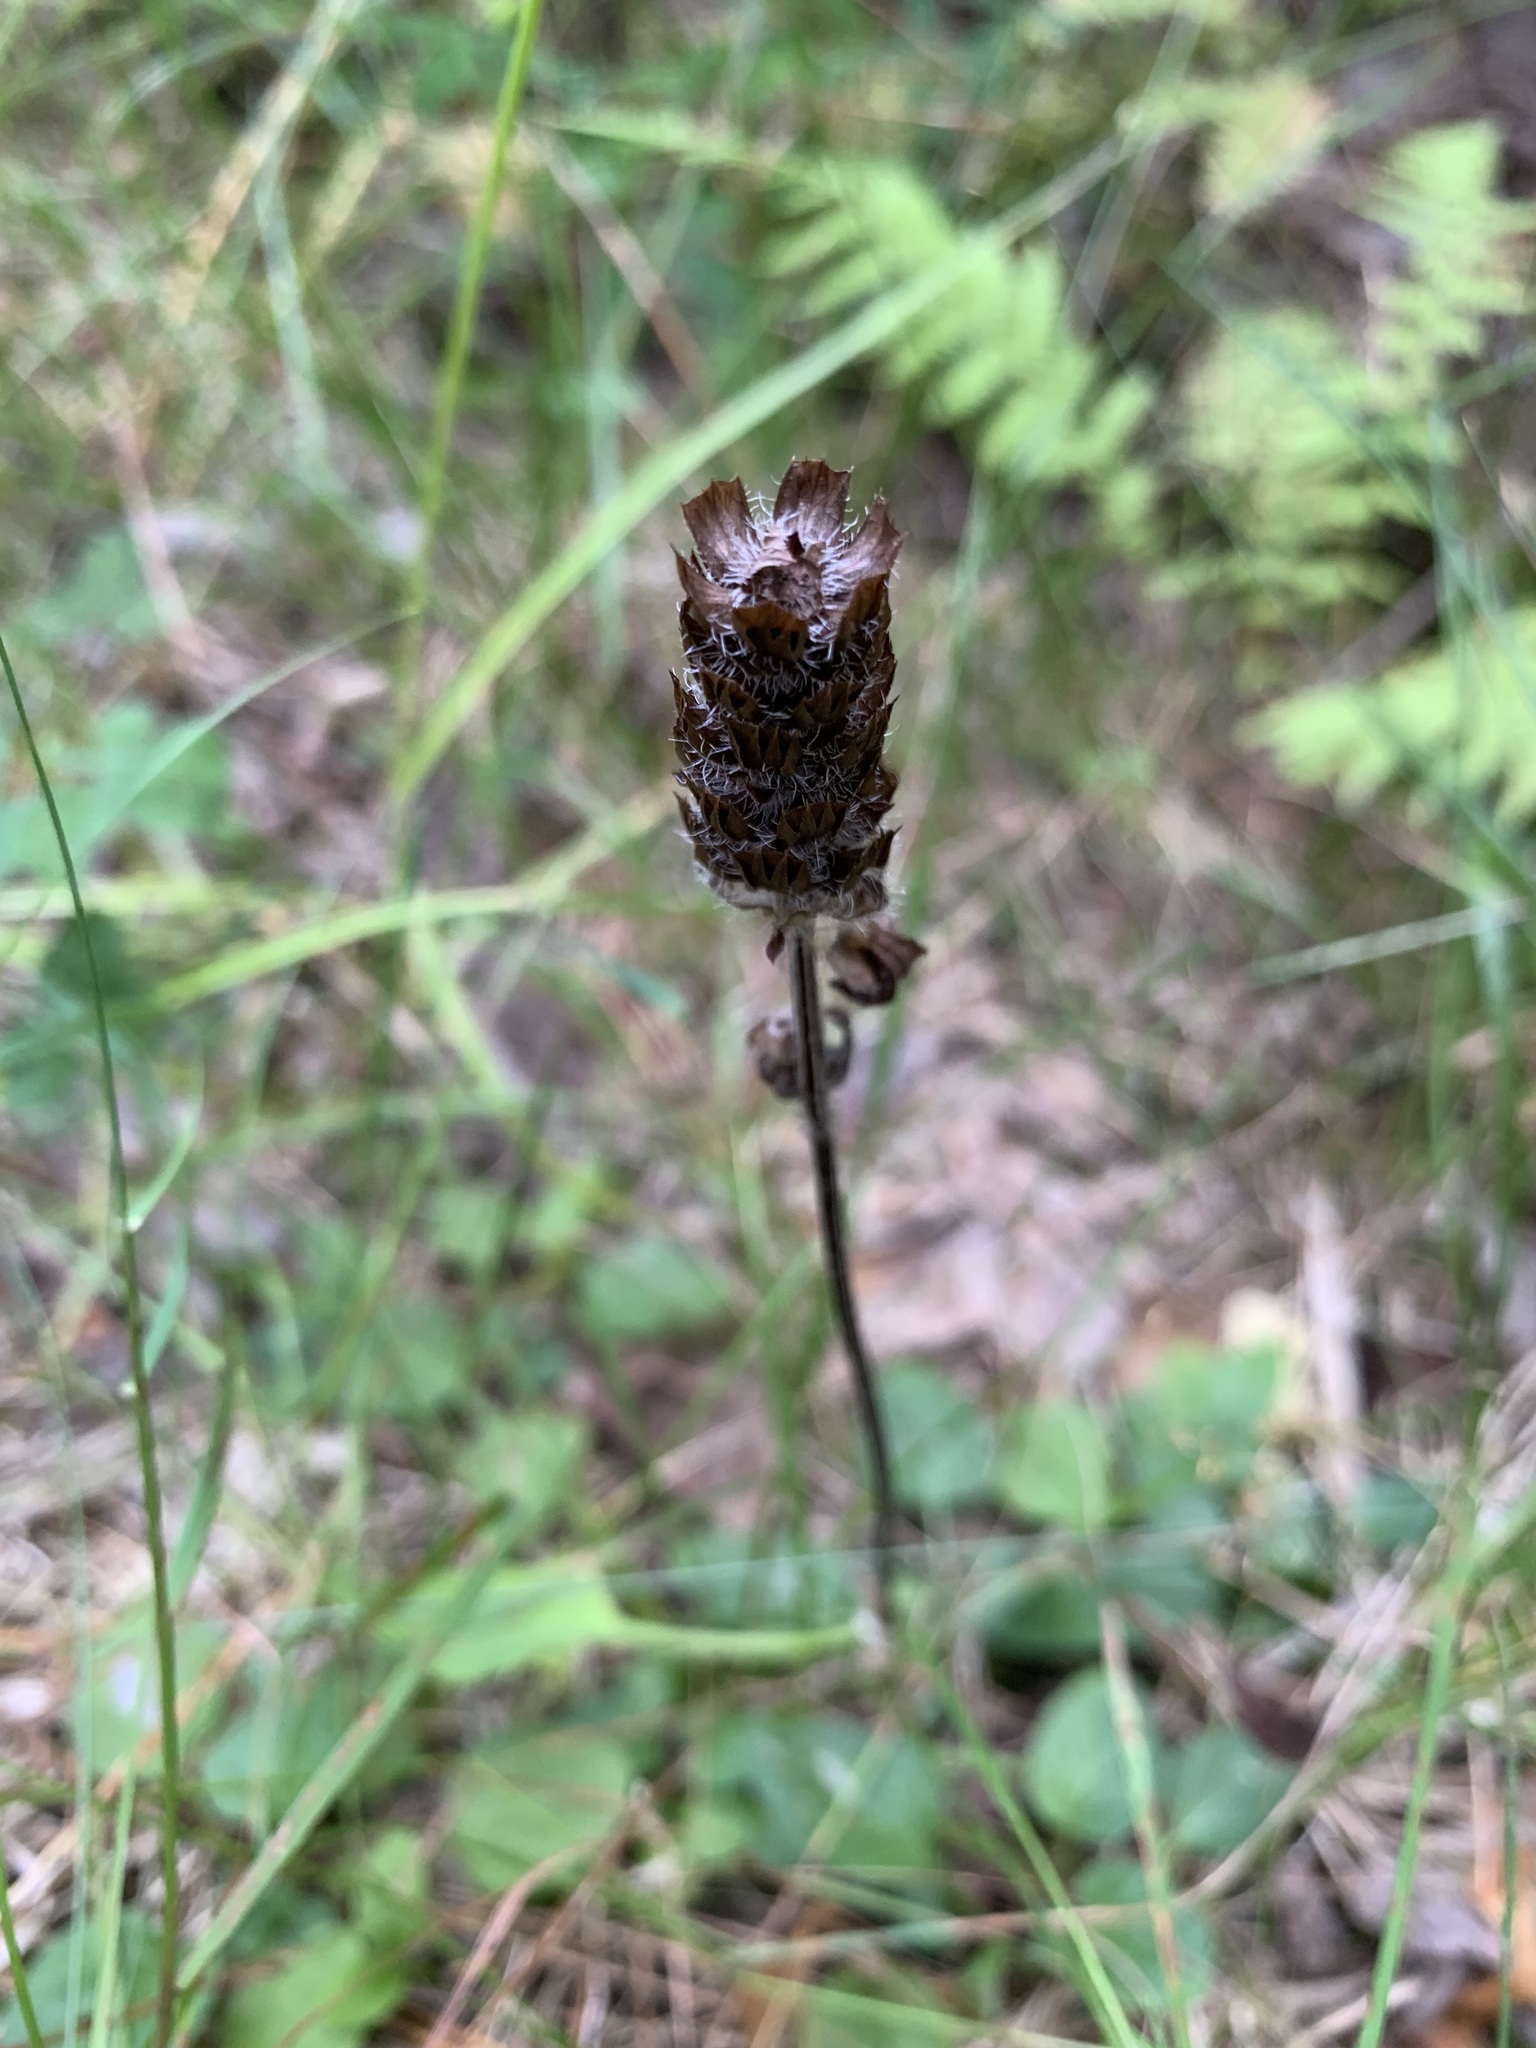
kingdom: Plantae
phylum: Tracheophyta
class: Magnoliopsida
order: Lamiales
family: Lamiaceae
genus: Prunella
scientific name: Prunella vulgaris
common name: Heal-all
